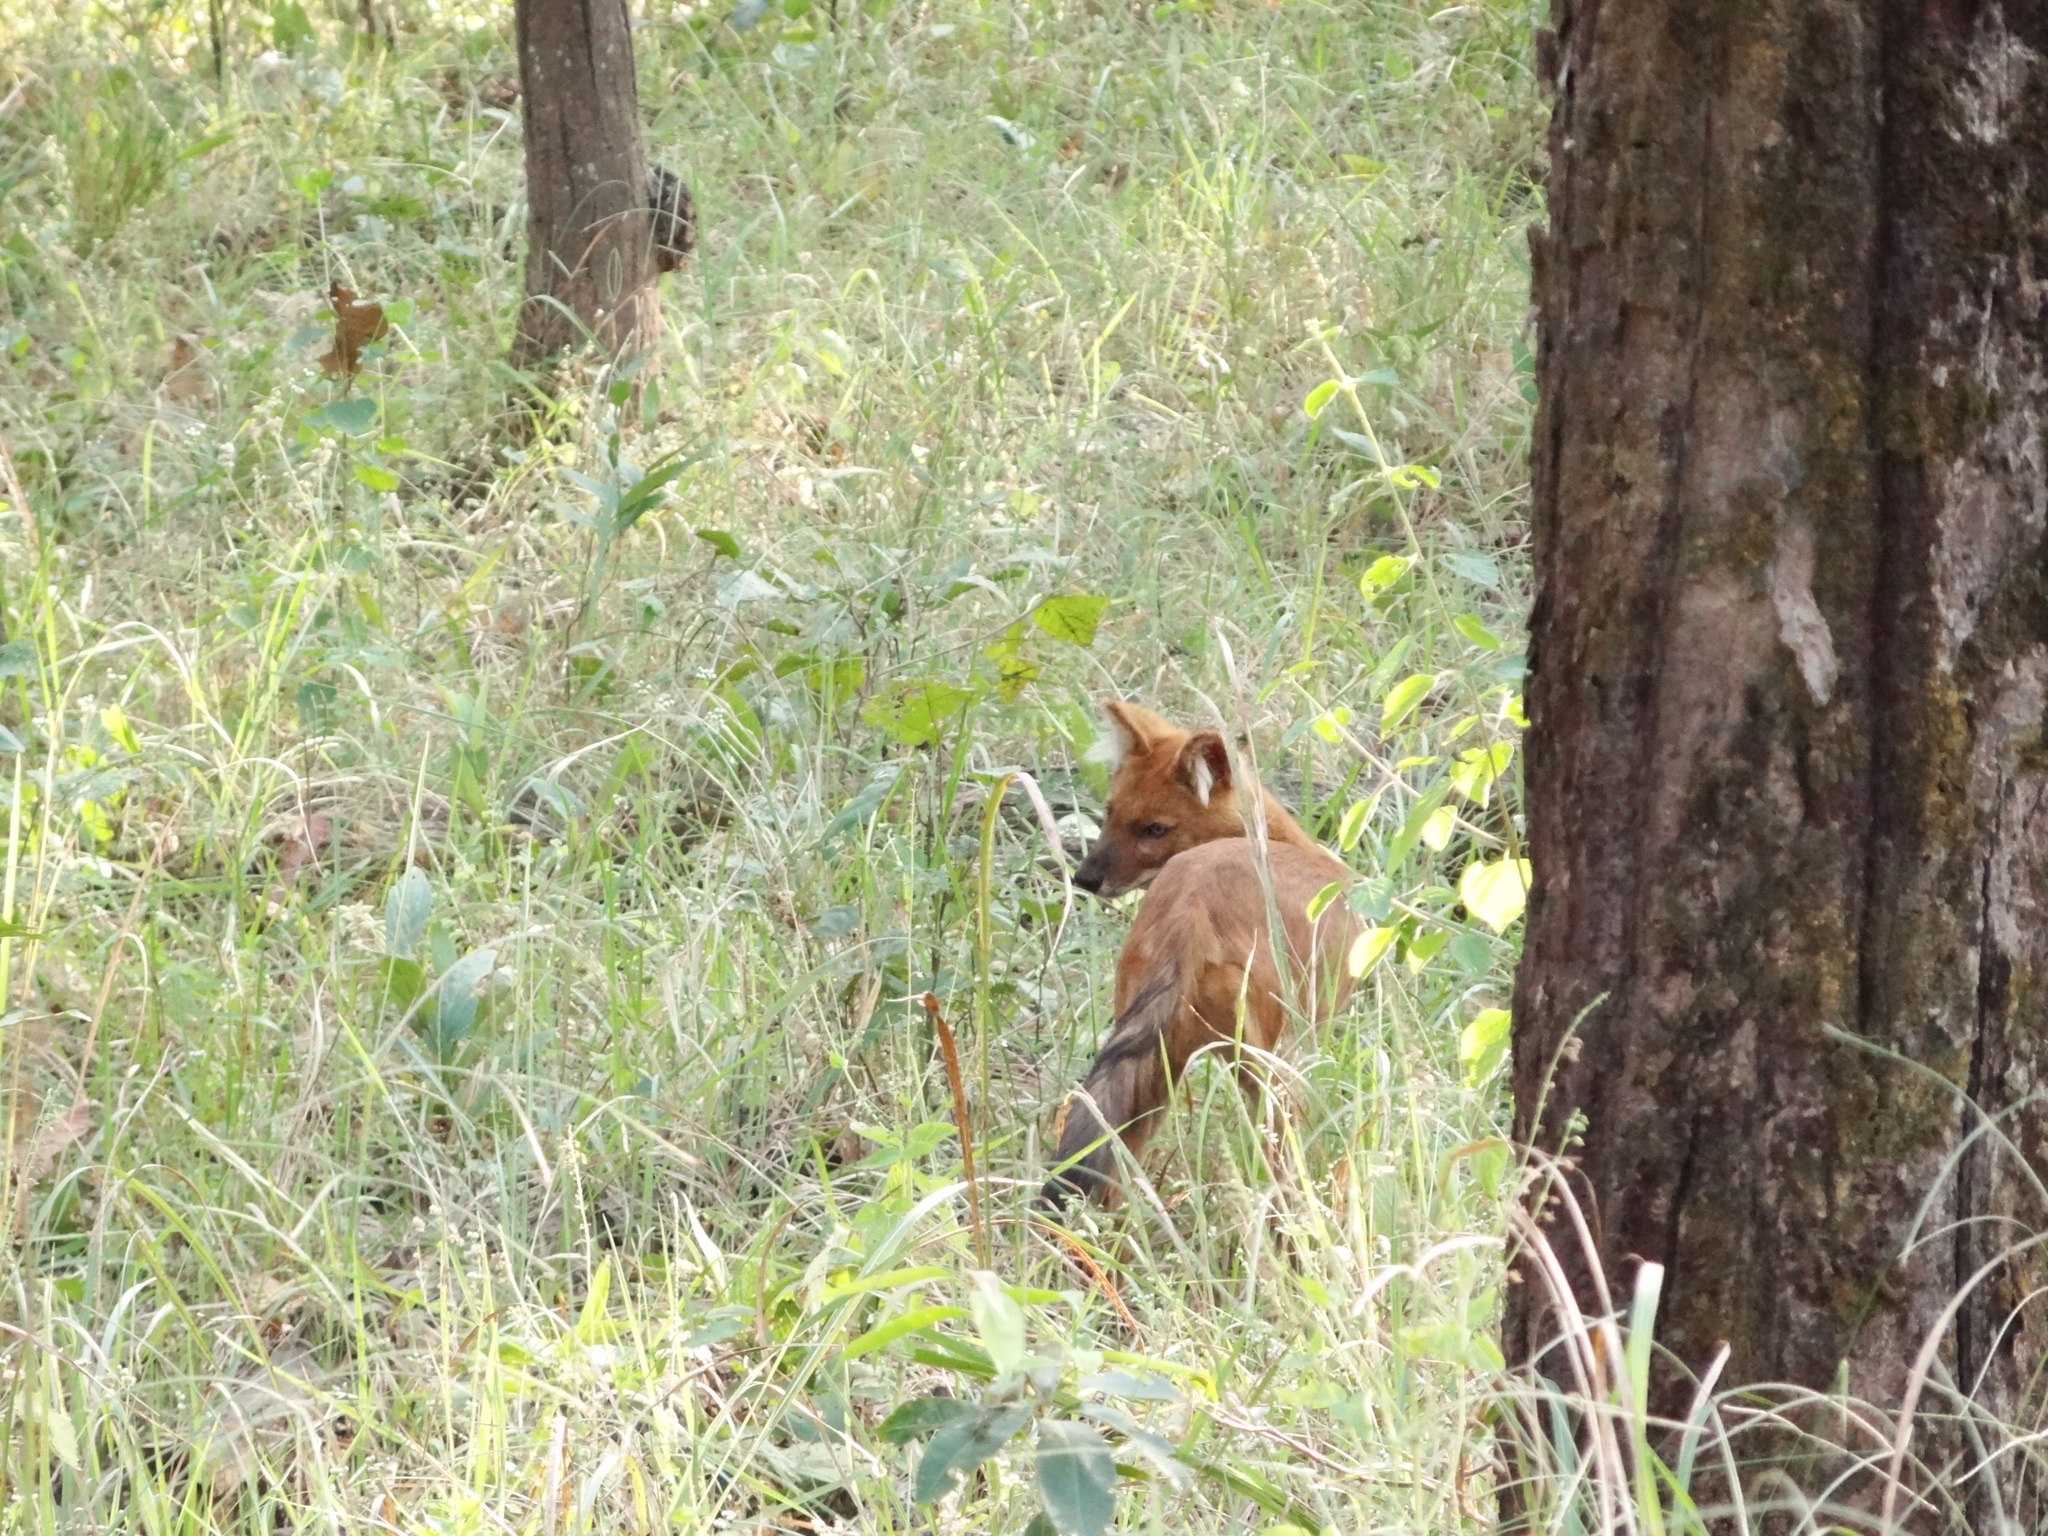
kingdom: Animalia
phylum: Chordata
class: Mammalia
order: Carnivora
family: Canidae
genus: Cuon
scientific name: Cuon alpinus
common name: Dhole
